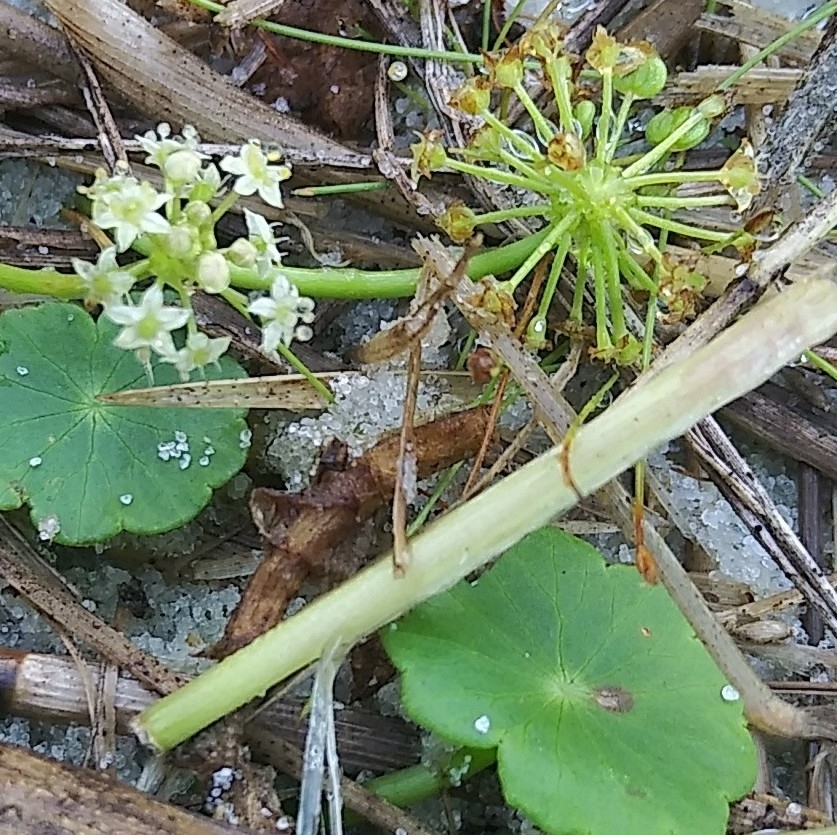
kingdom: Plantae
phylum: Tracheophyta
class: Magnoliopsida
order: Apiales
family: Araliaceae
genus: Hydrocotyle
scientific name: Hydrocotyle umbellata
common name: Water pennywort
